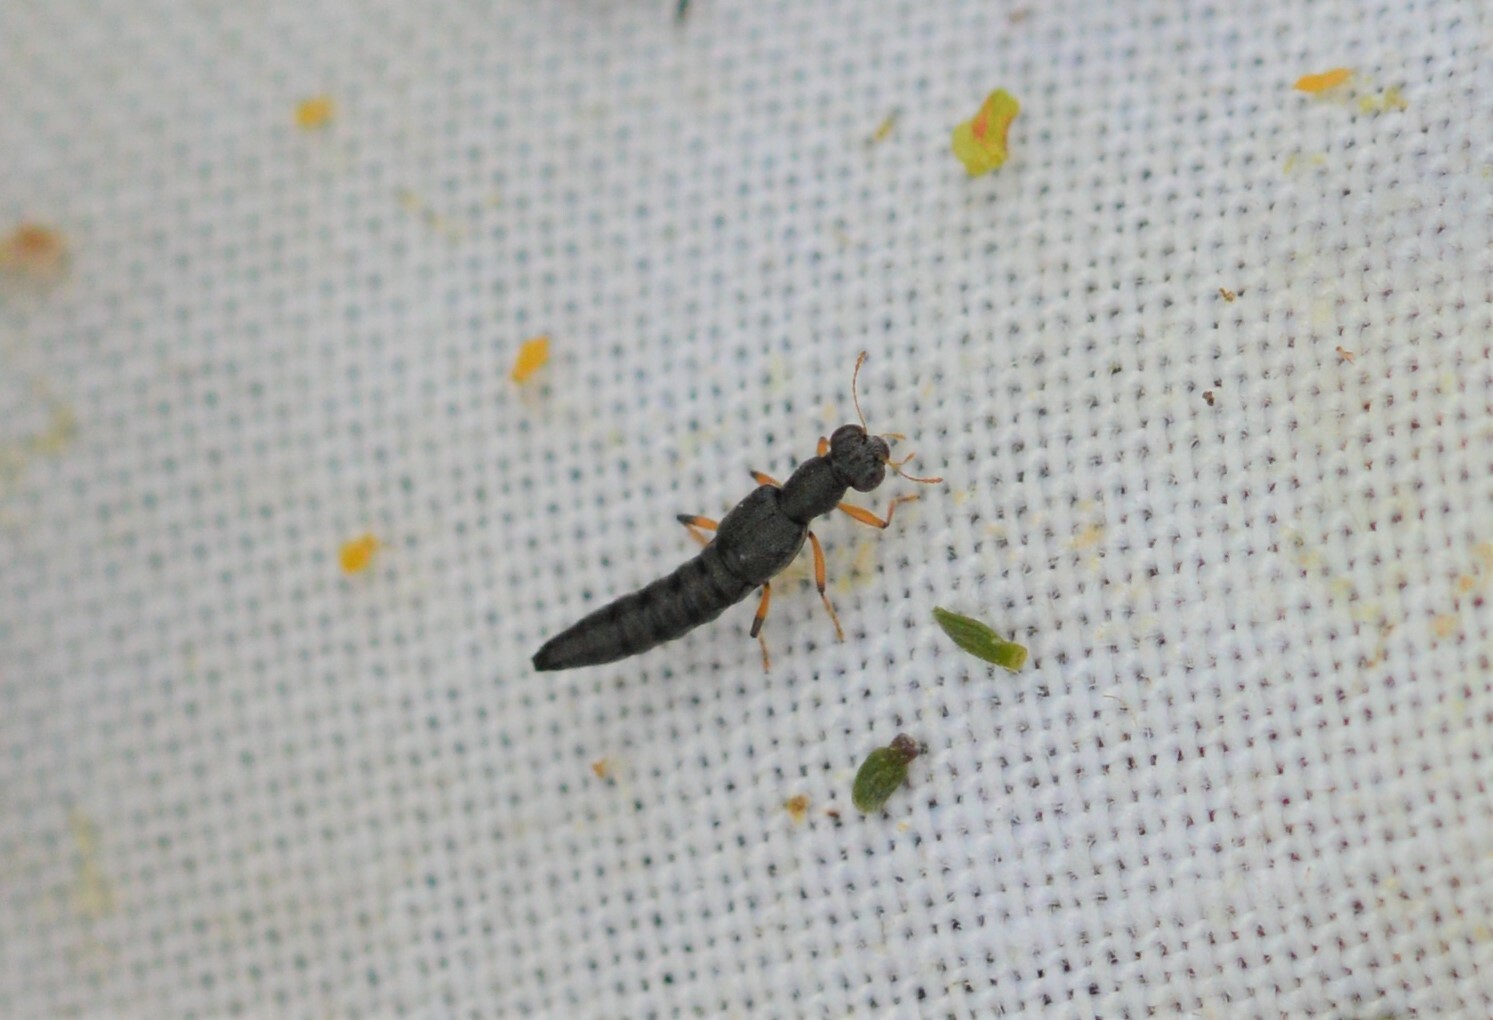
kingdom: Animalia
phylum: Arthropoda
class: Insecta
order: Coleoptera
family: Staphylinidae
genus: Stenus
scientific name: Stenus similis
